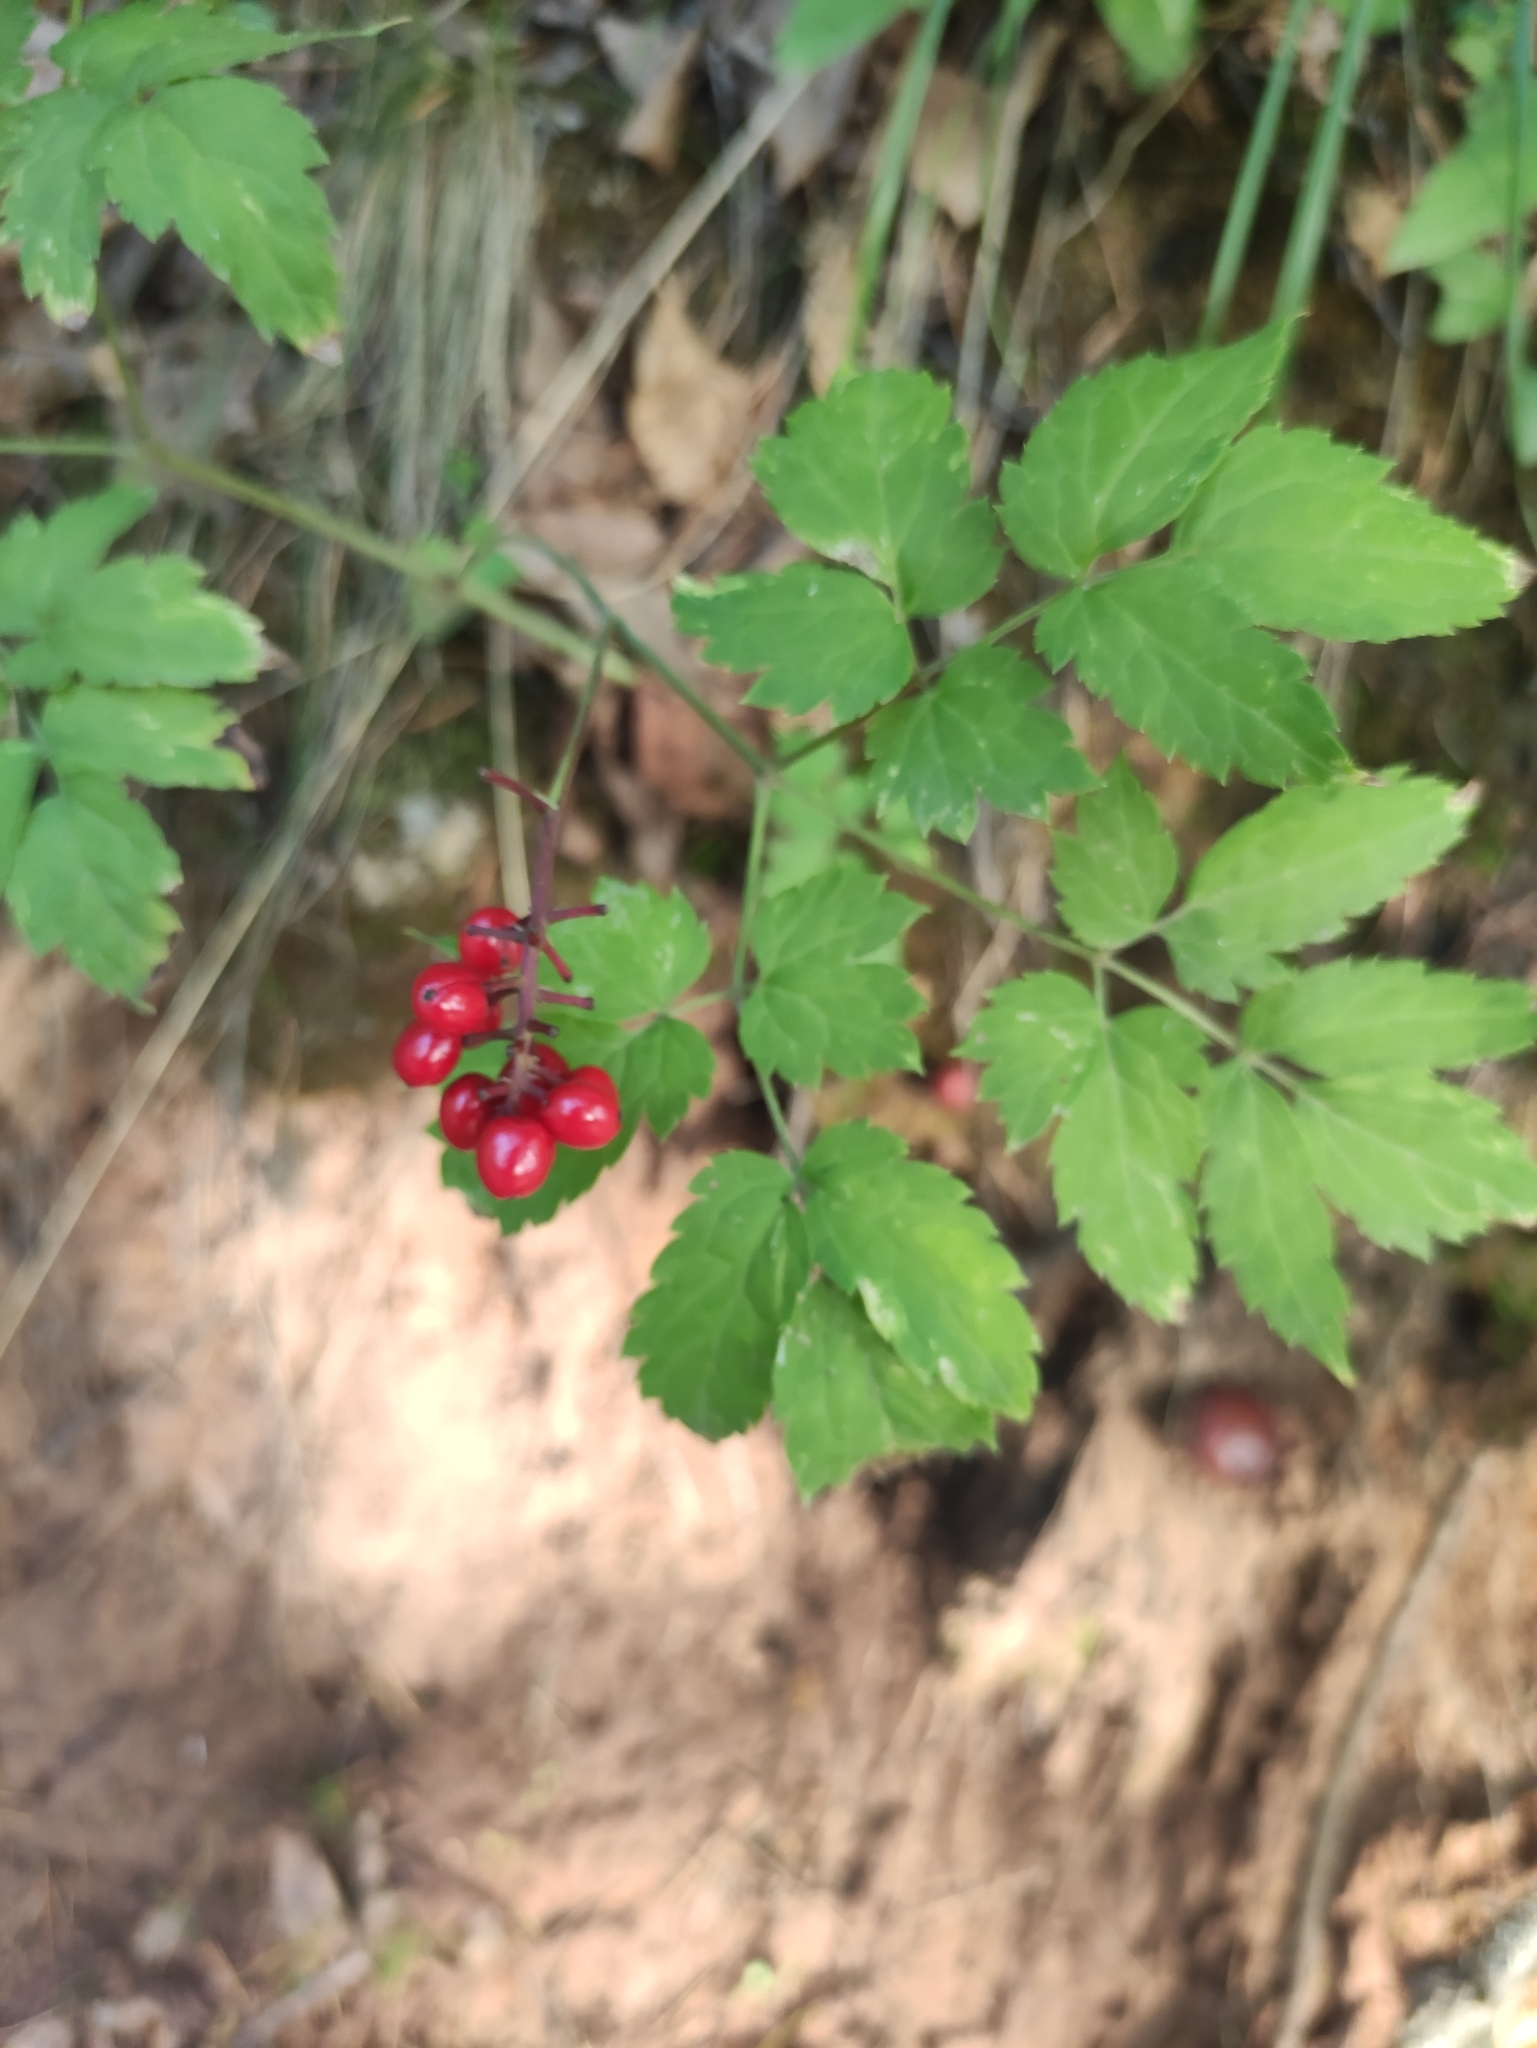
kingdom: Plantae
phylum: Tracheophyta
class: Magnoliopsida
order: Ranunculales
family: Ranunculaceae
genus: Actaea
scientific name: Actaea erythrocarpa
